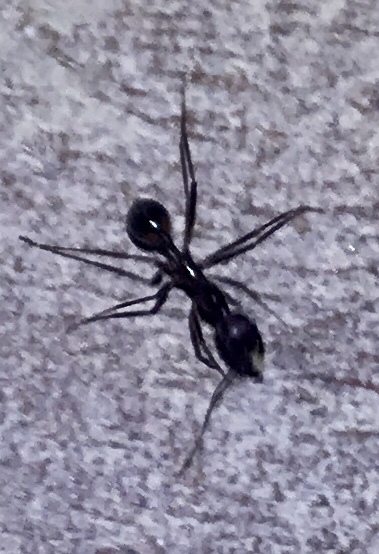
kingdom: Animalia
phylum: Arthropoda
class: Insecta
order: Hymenoptera
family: Formicidae
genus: Novomessor
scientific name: Novomessor cockerelli
